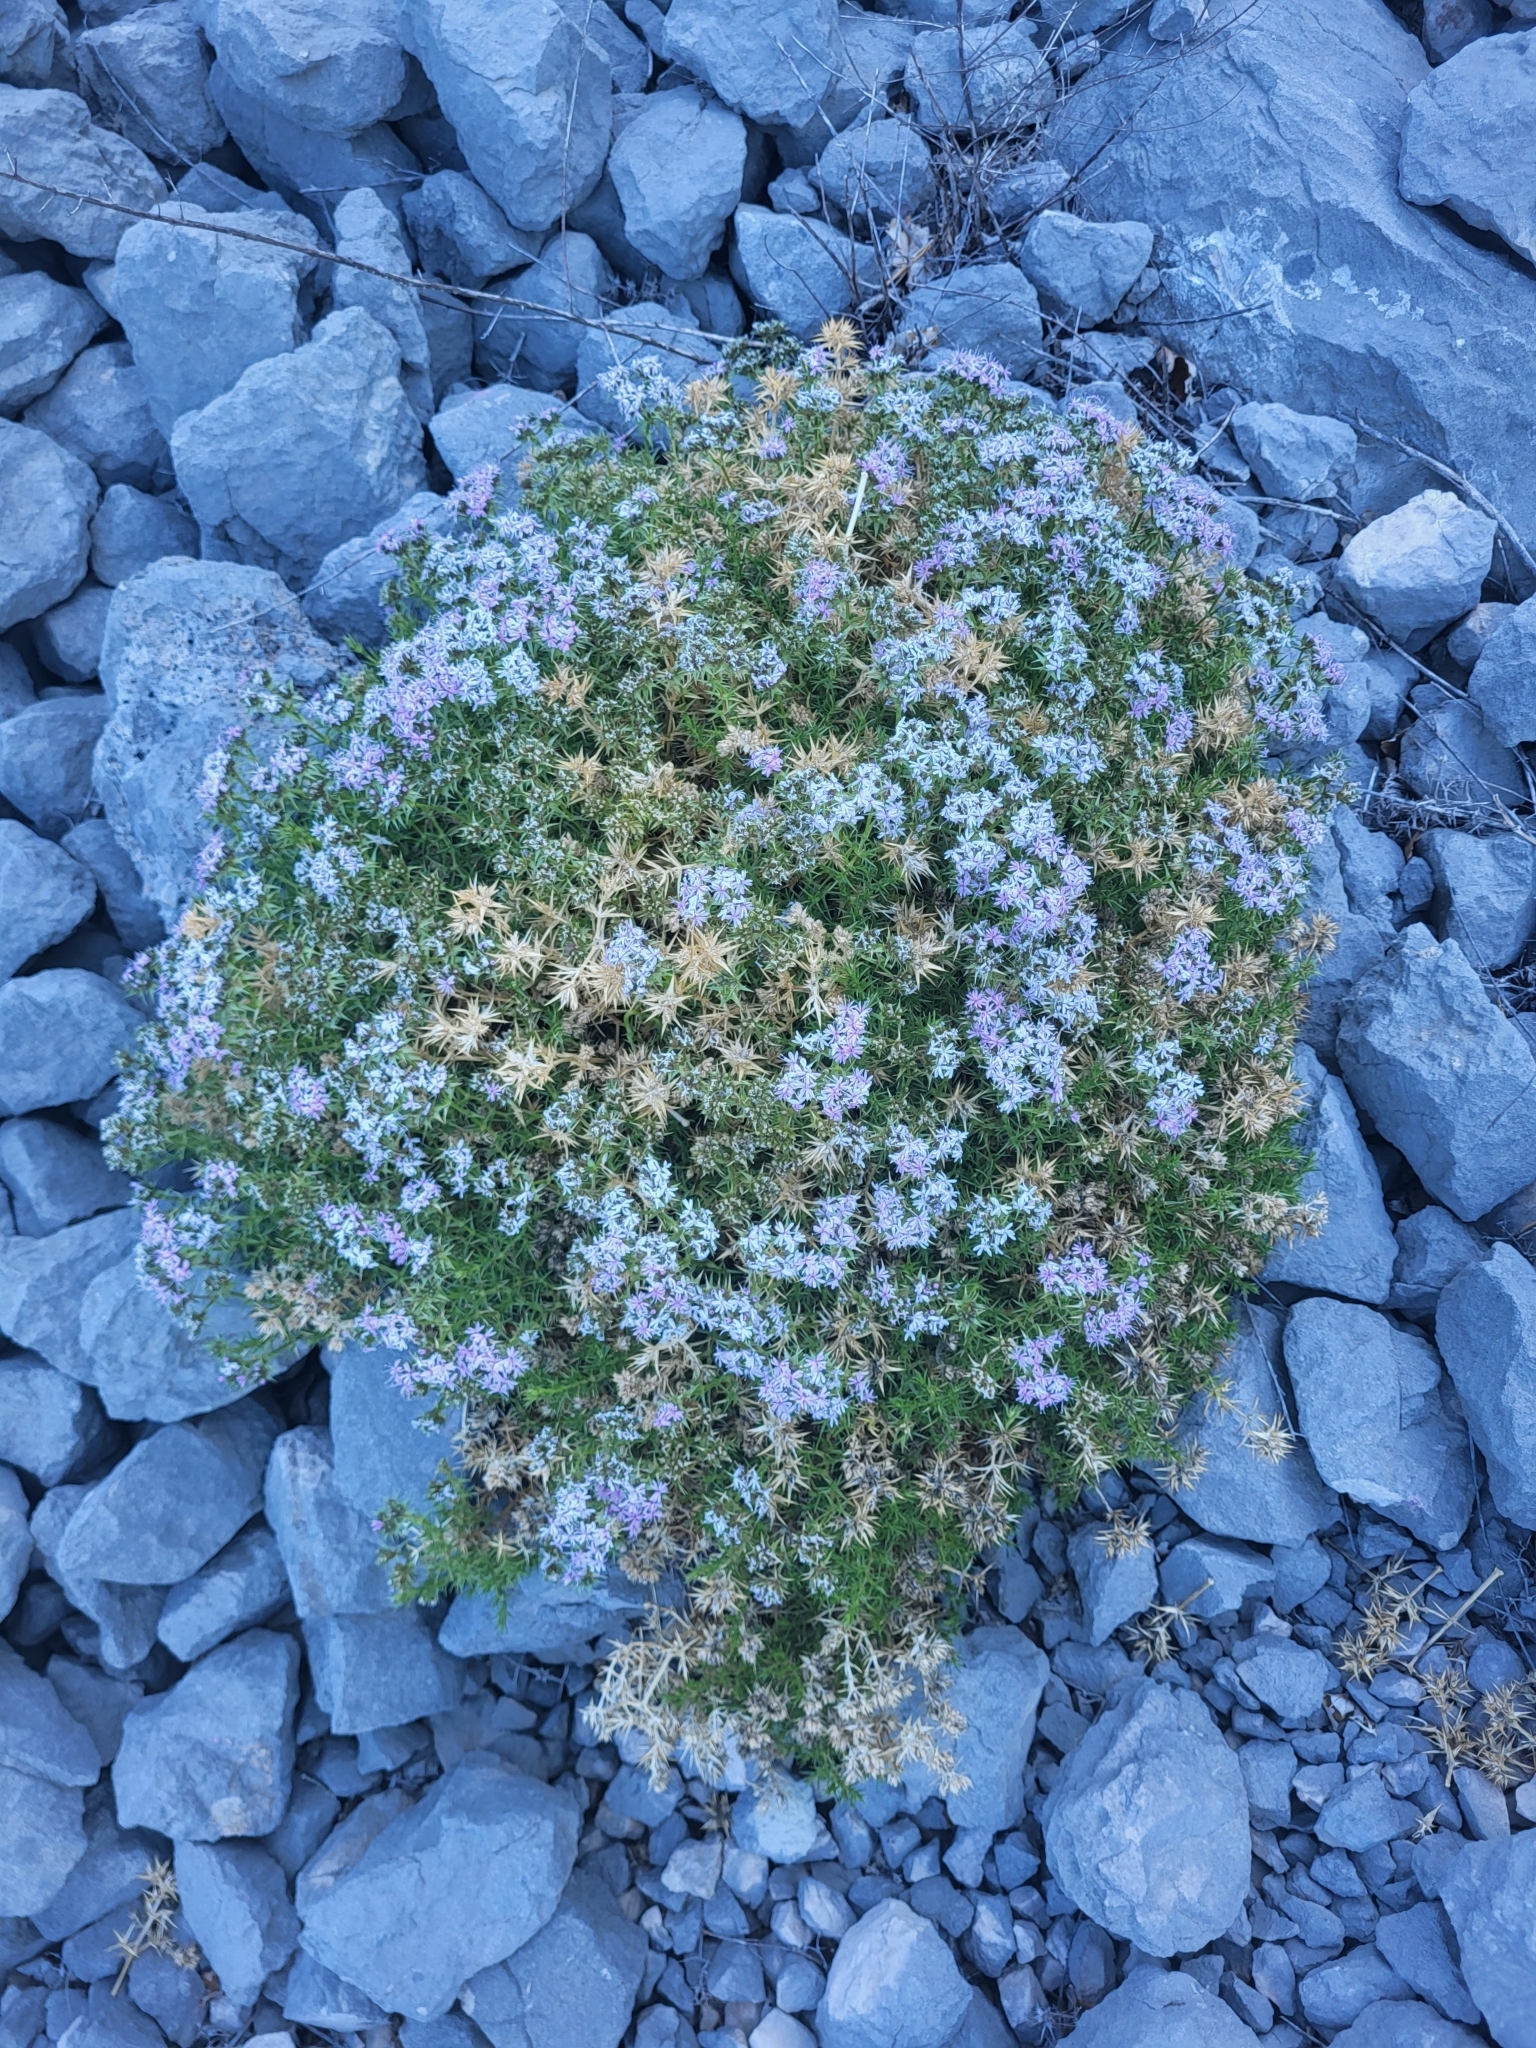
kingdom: Plantae
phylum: Tracheophyta
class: Magnoliopsida
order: Caryophyllales
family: Caryophyllaceae
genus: Drypis
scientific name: Drypis spinosa
